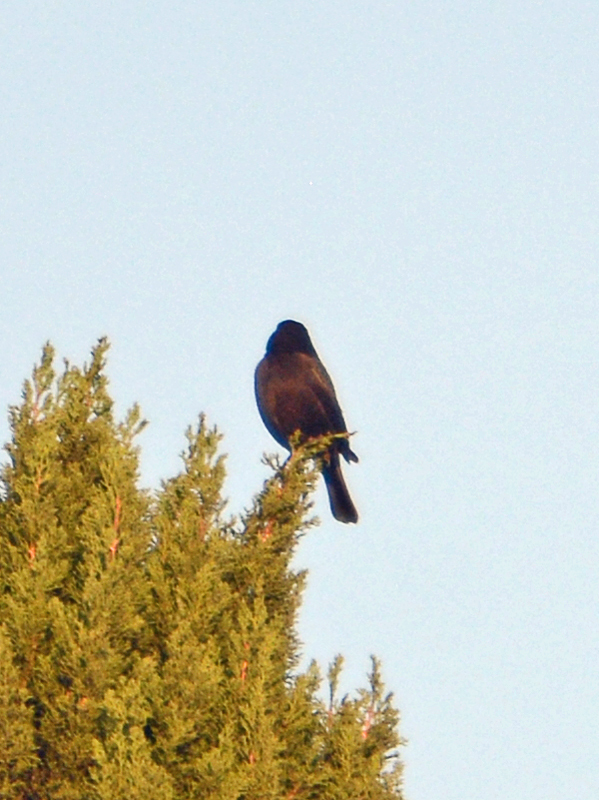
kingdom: Animalia
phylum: Chordata
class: Aves
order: Passeriformes
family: Icteridae
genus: Molothrus
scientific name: Molothrus aeneus
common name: Bronzed cowbird
